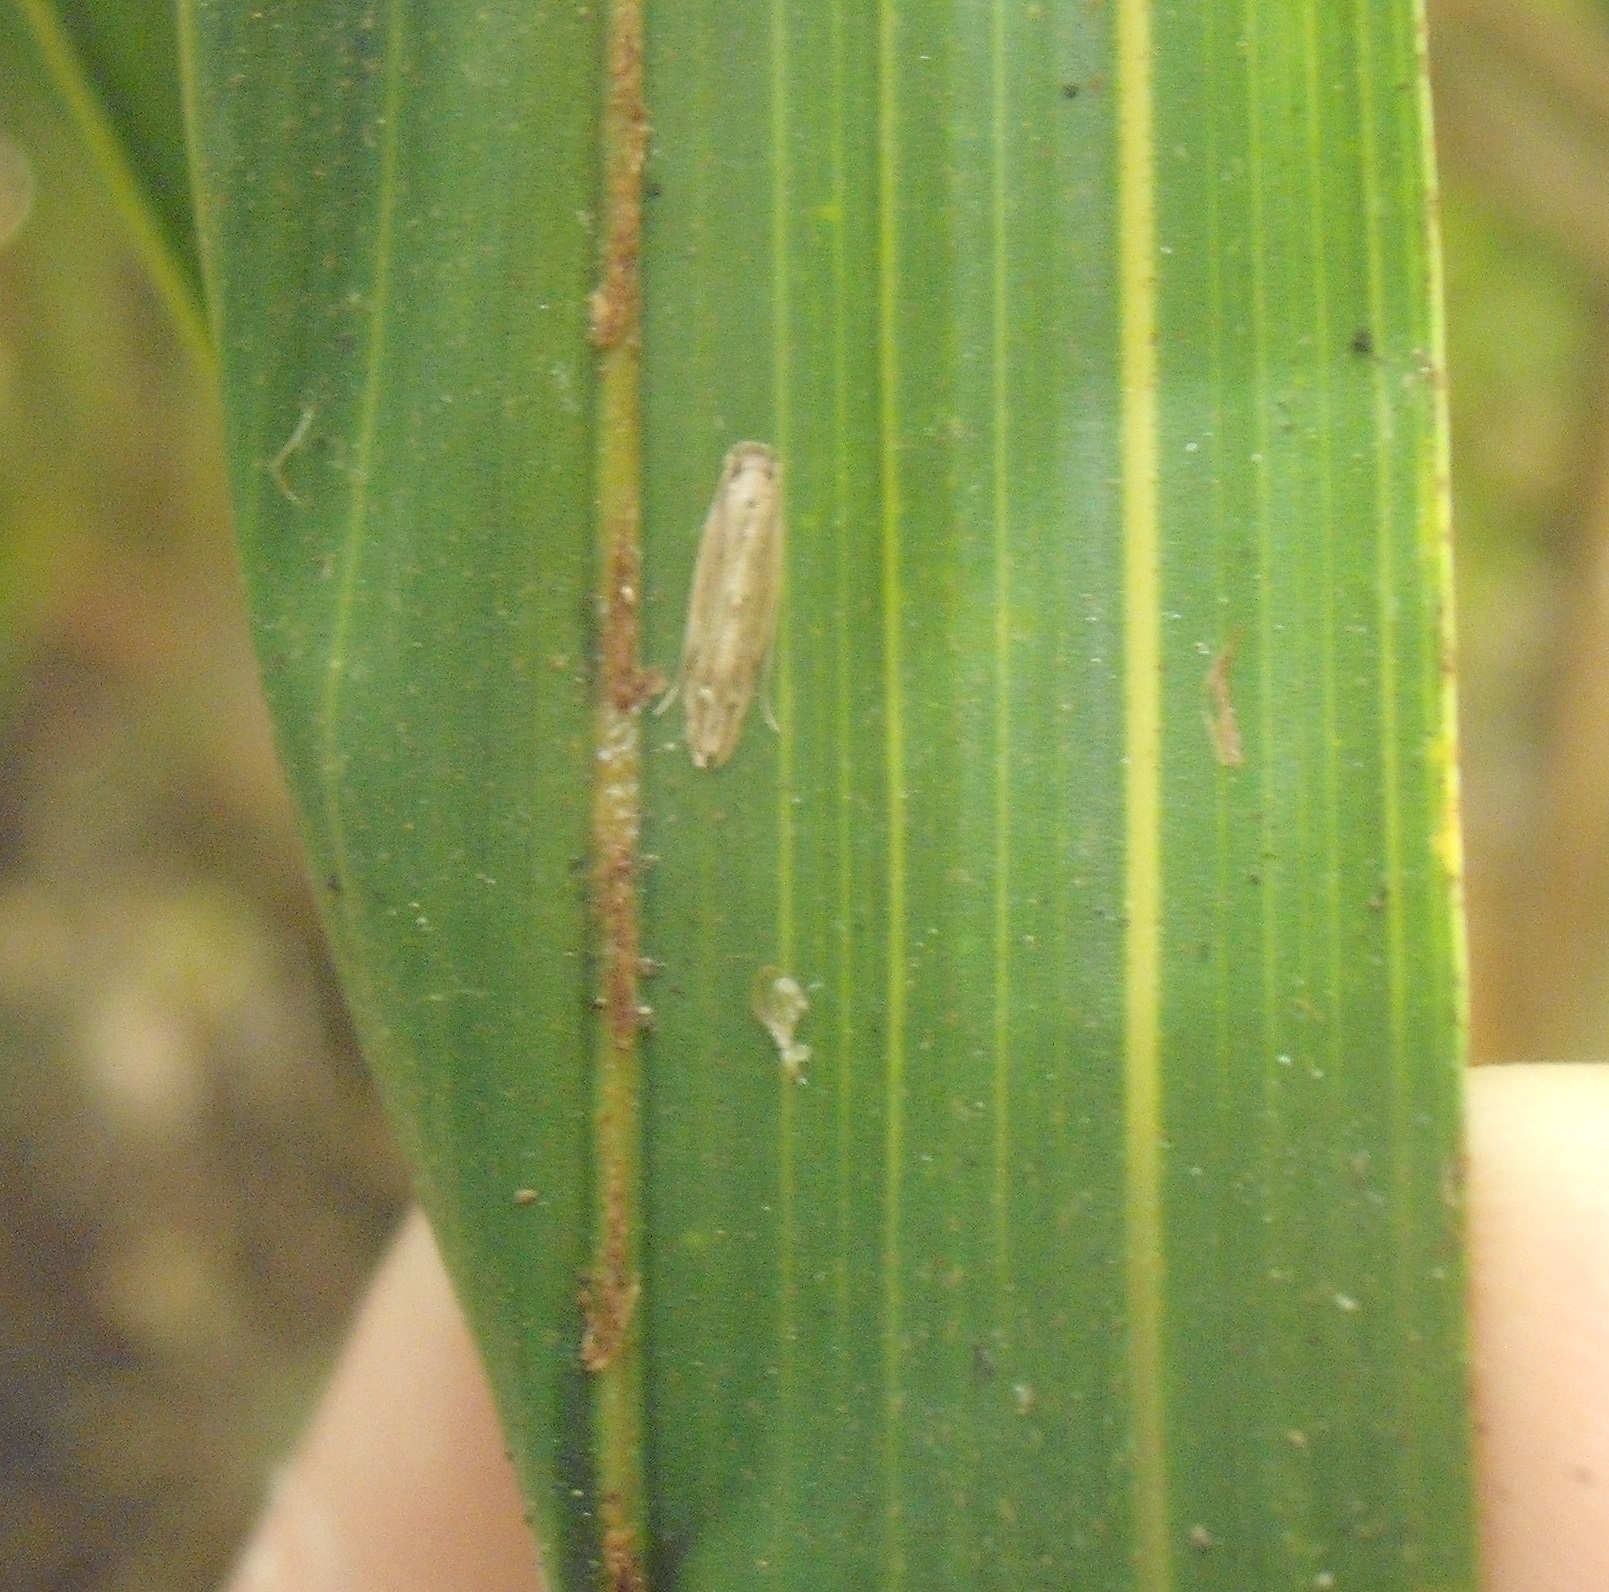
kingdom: Animalia
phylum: Arthropoda
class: Insecta
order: Lepidoptera
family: Tineidae
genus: Amphixystis
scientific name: Amphixystis hapsimacha
